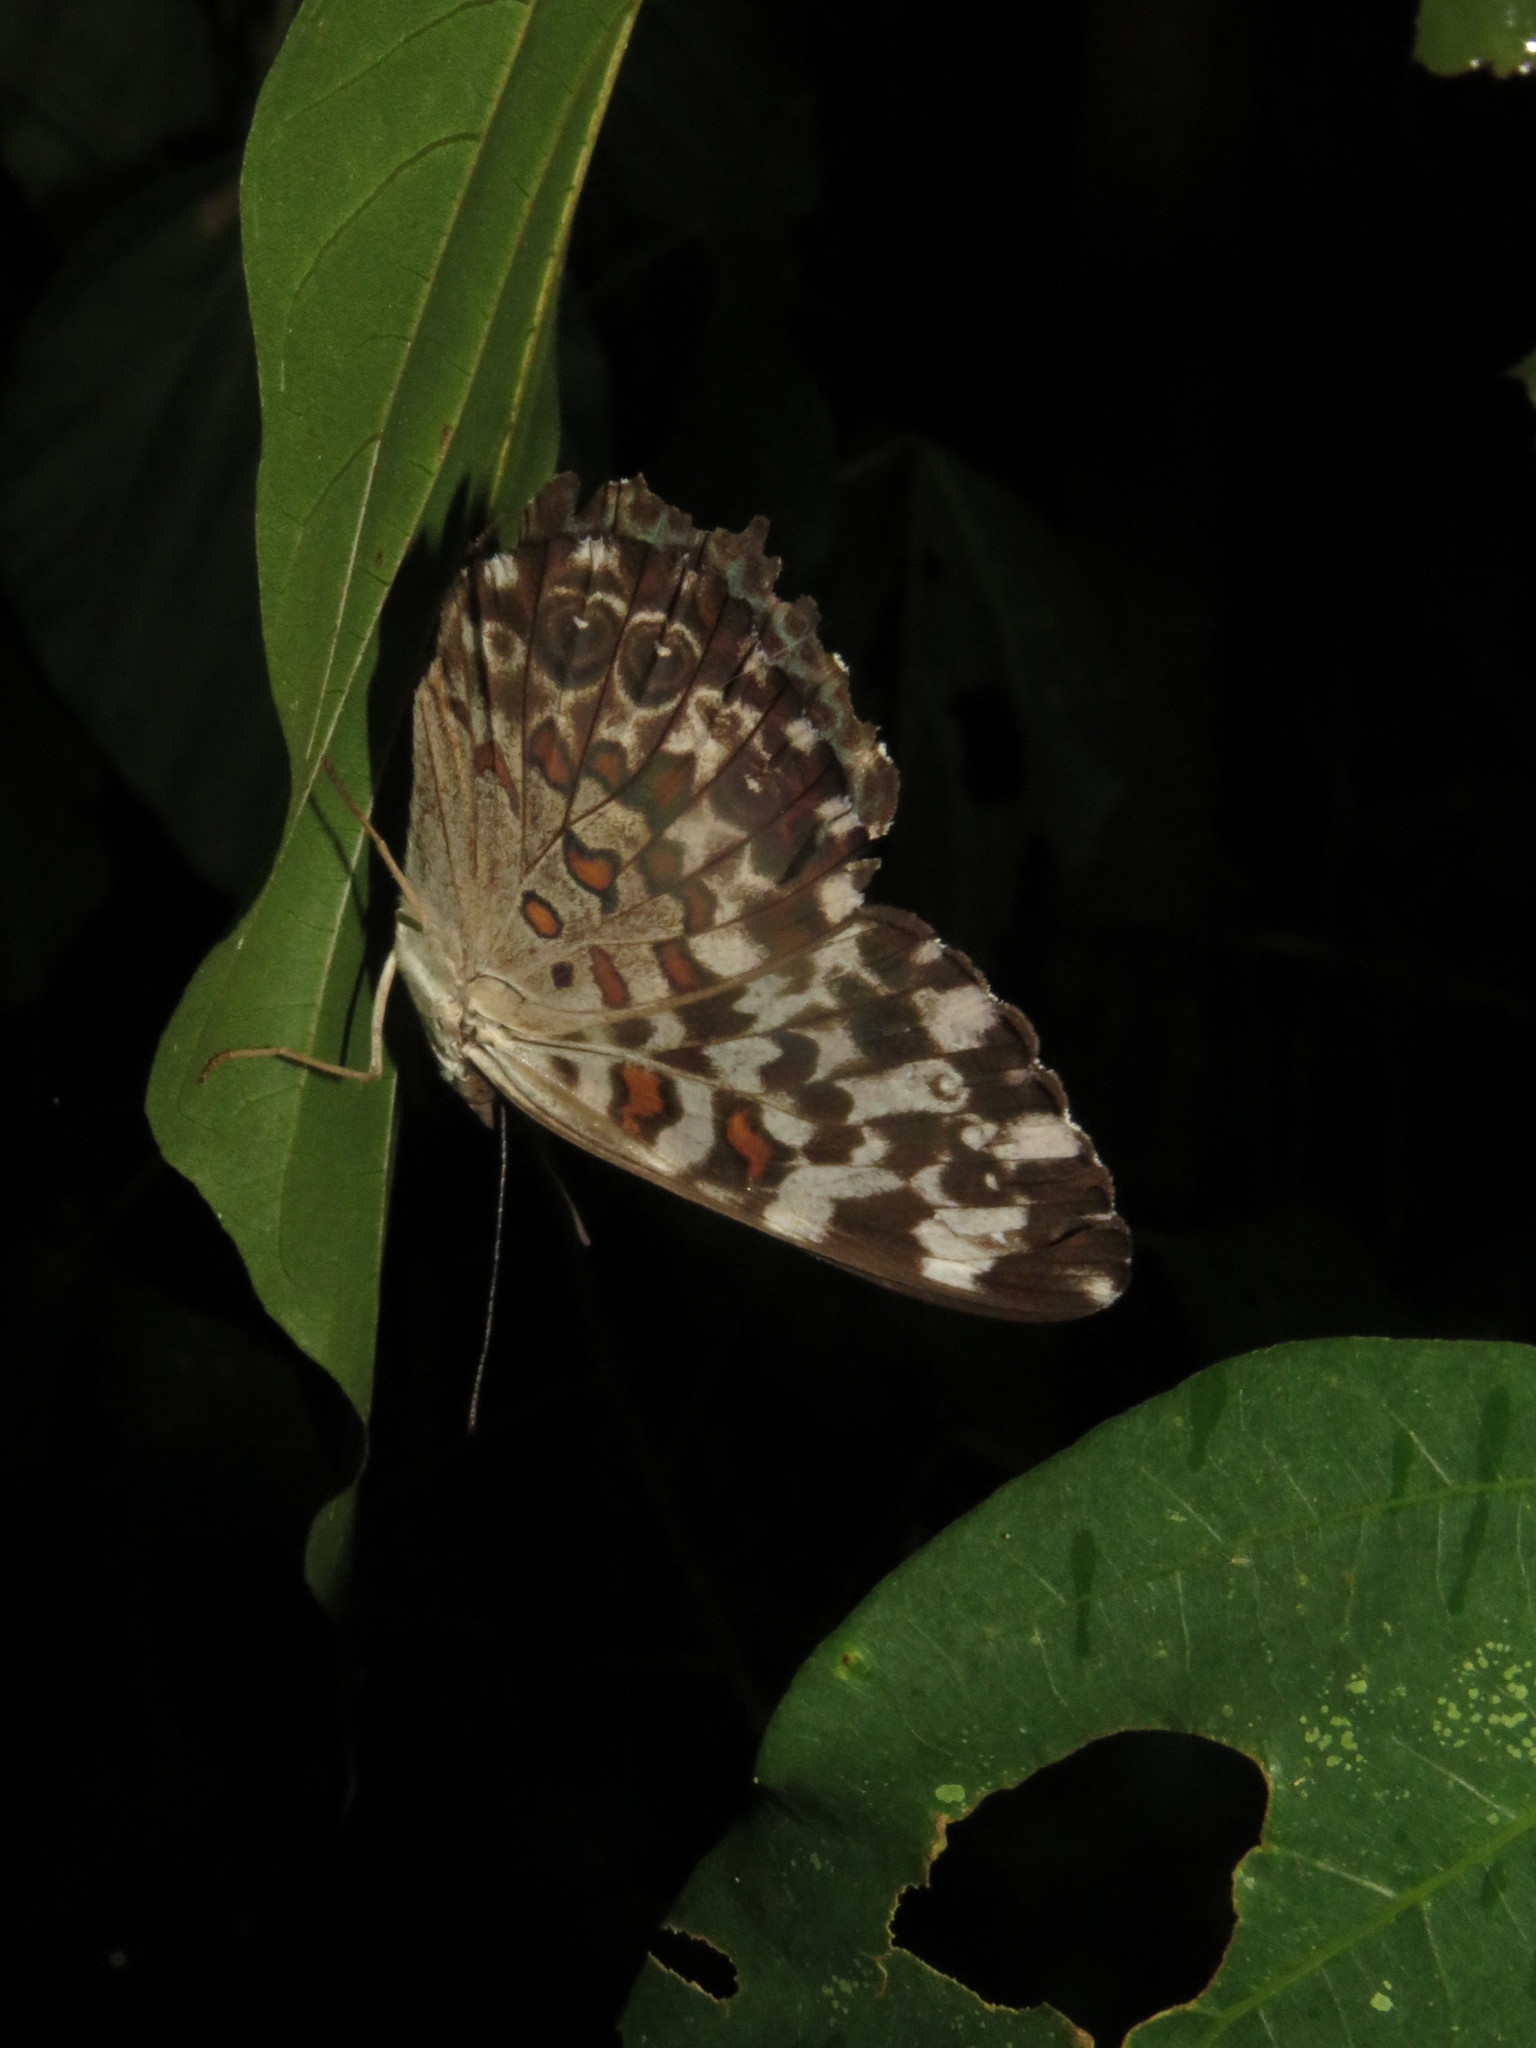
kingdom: Animalia
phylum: Arthropoda
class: Insecta
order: Lepidoptera
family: Nymphalidae
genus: Hamadryas
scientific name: Hamadryas chloe
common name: Amazon cracker
